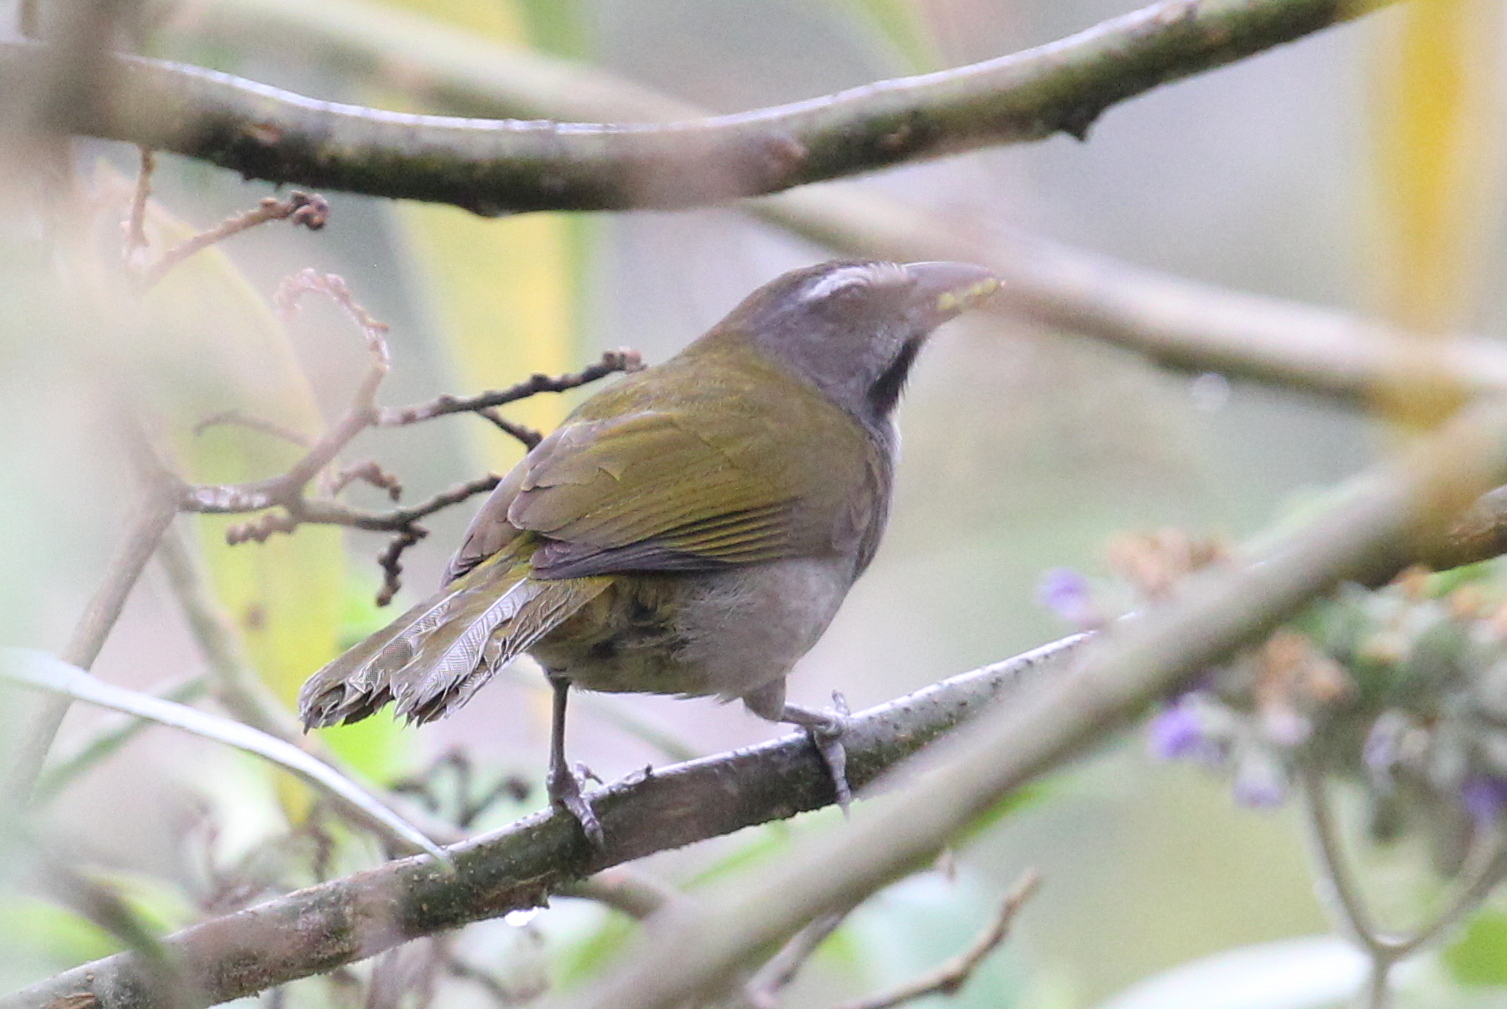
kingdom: Animalia
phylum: Chordata
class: Aves
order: Passeriformes
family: Thraupidae
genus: Saltator
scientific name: Saltator maximus
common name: Buff-throated saltator
